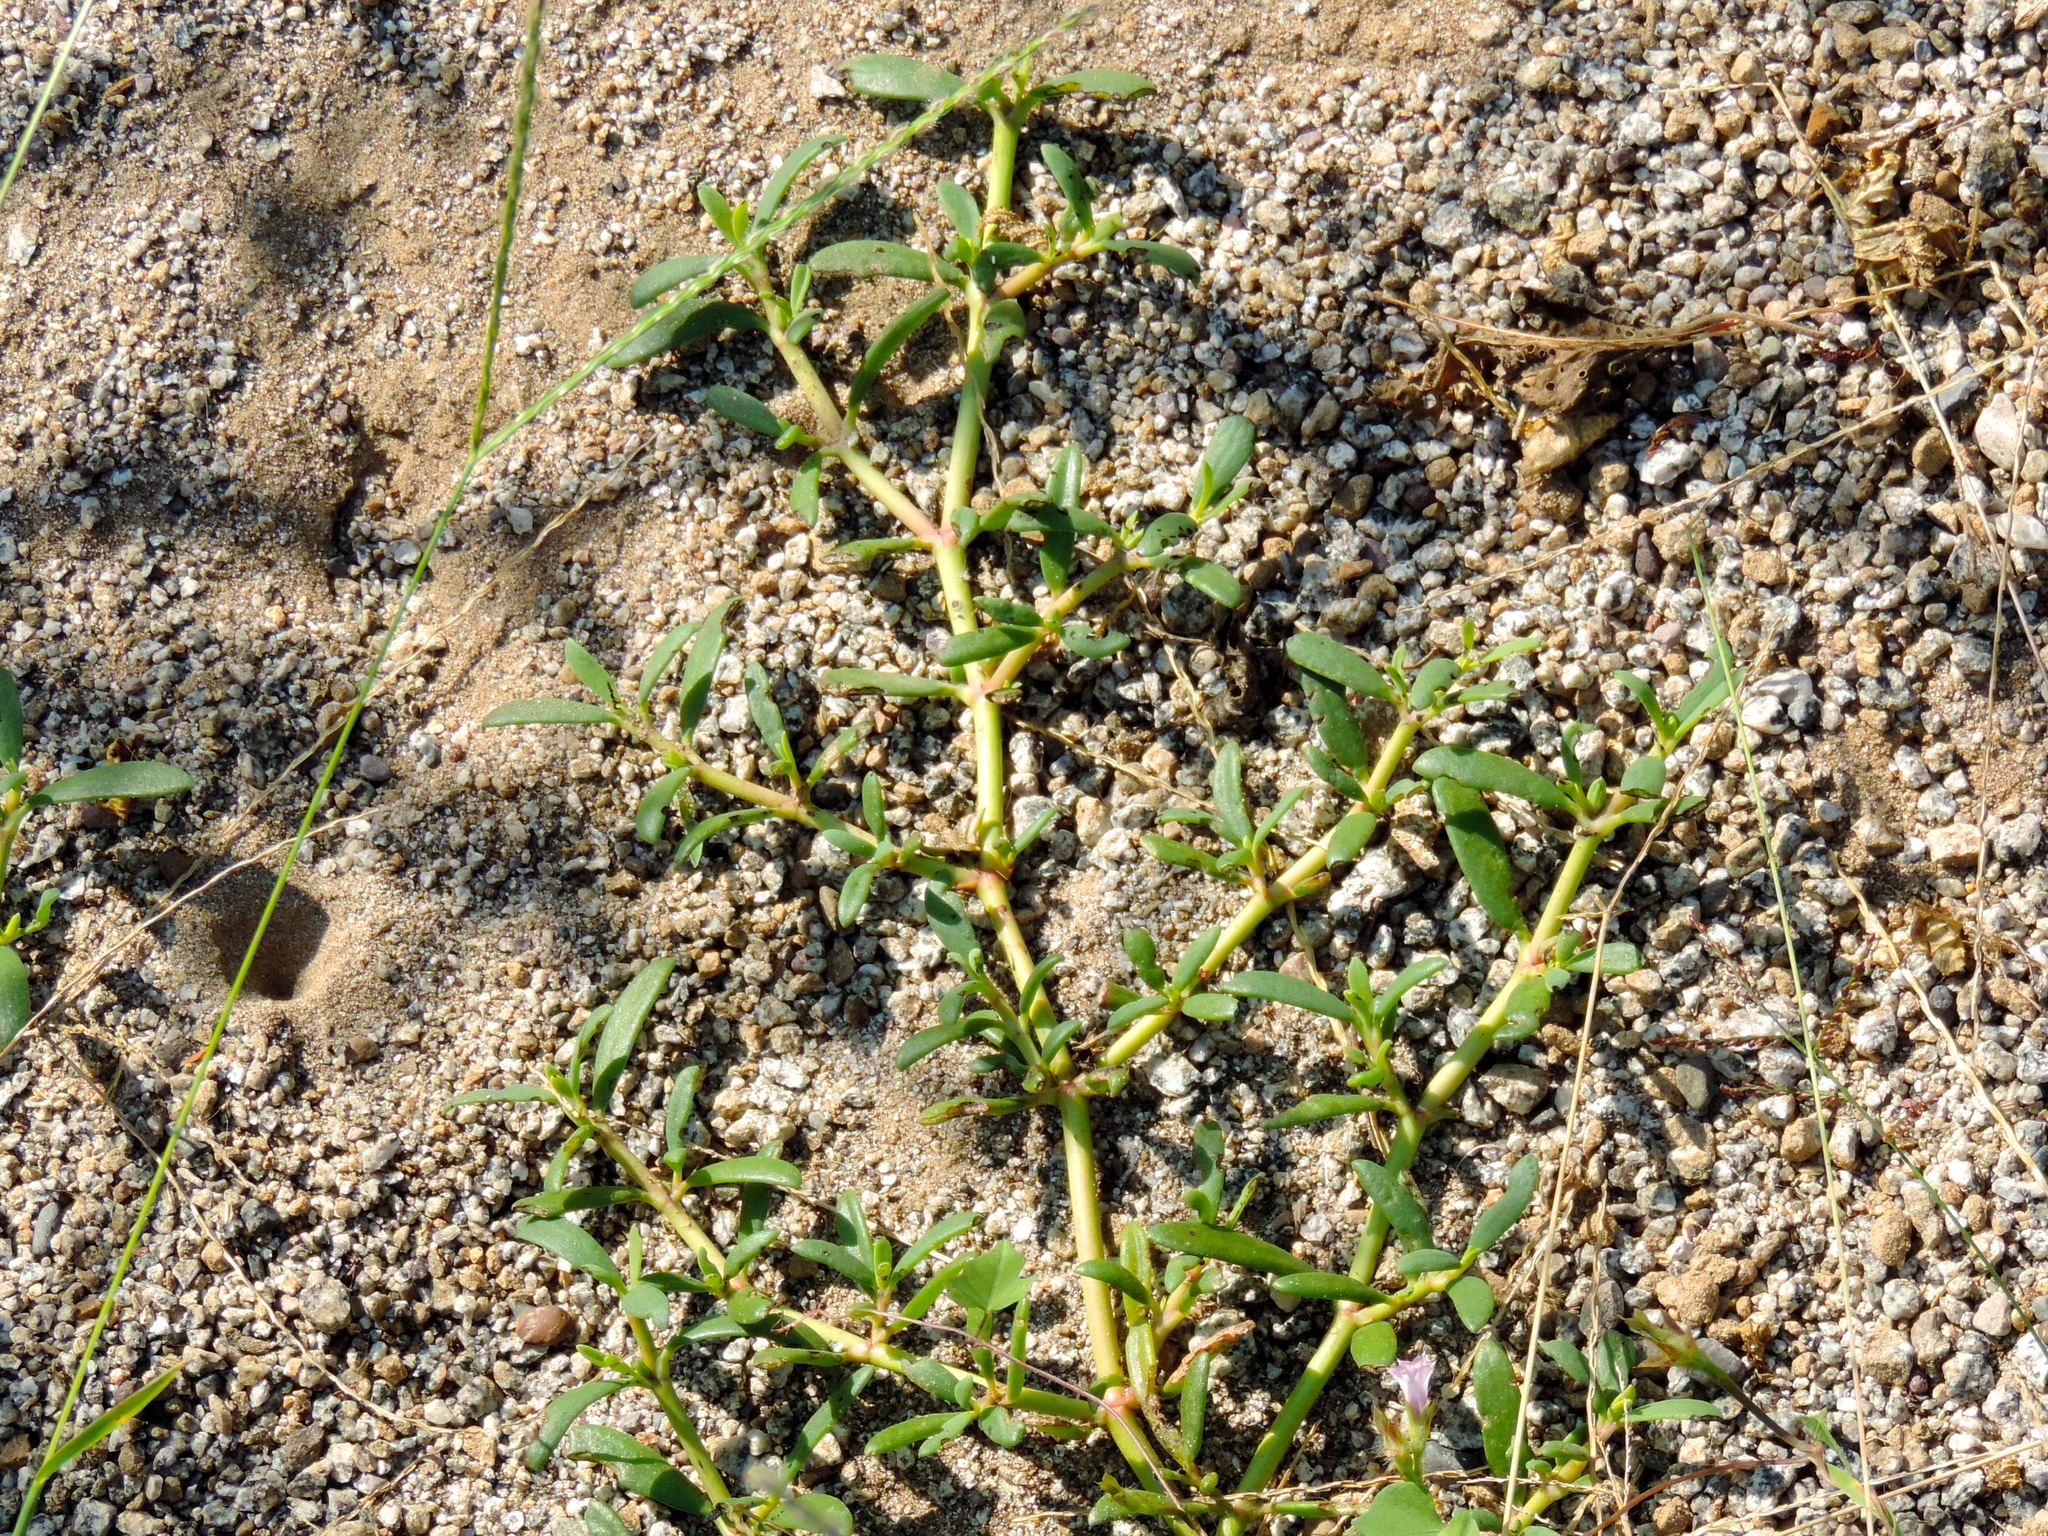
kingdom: Plantae
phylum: Tracheophyta
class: Magnoliopsida
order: Caryophyllales
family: Aizoaceae
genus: Sesuvium
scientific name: Sesuvium portulacastrum
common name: Sea-purslane
